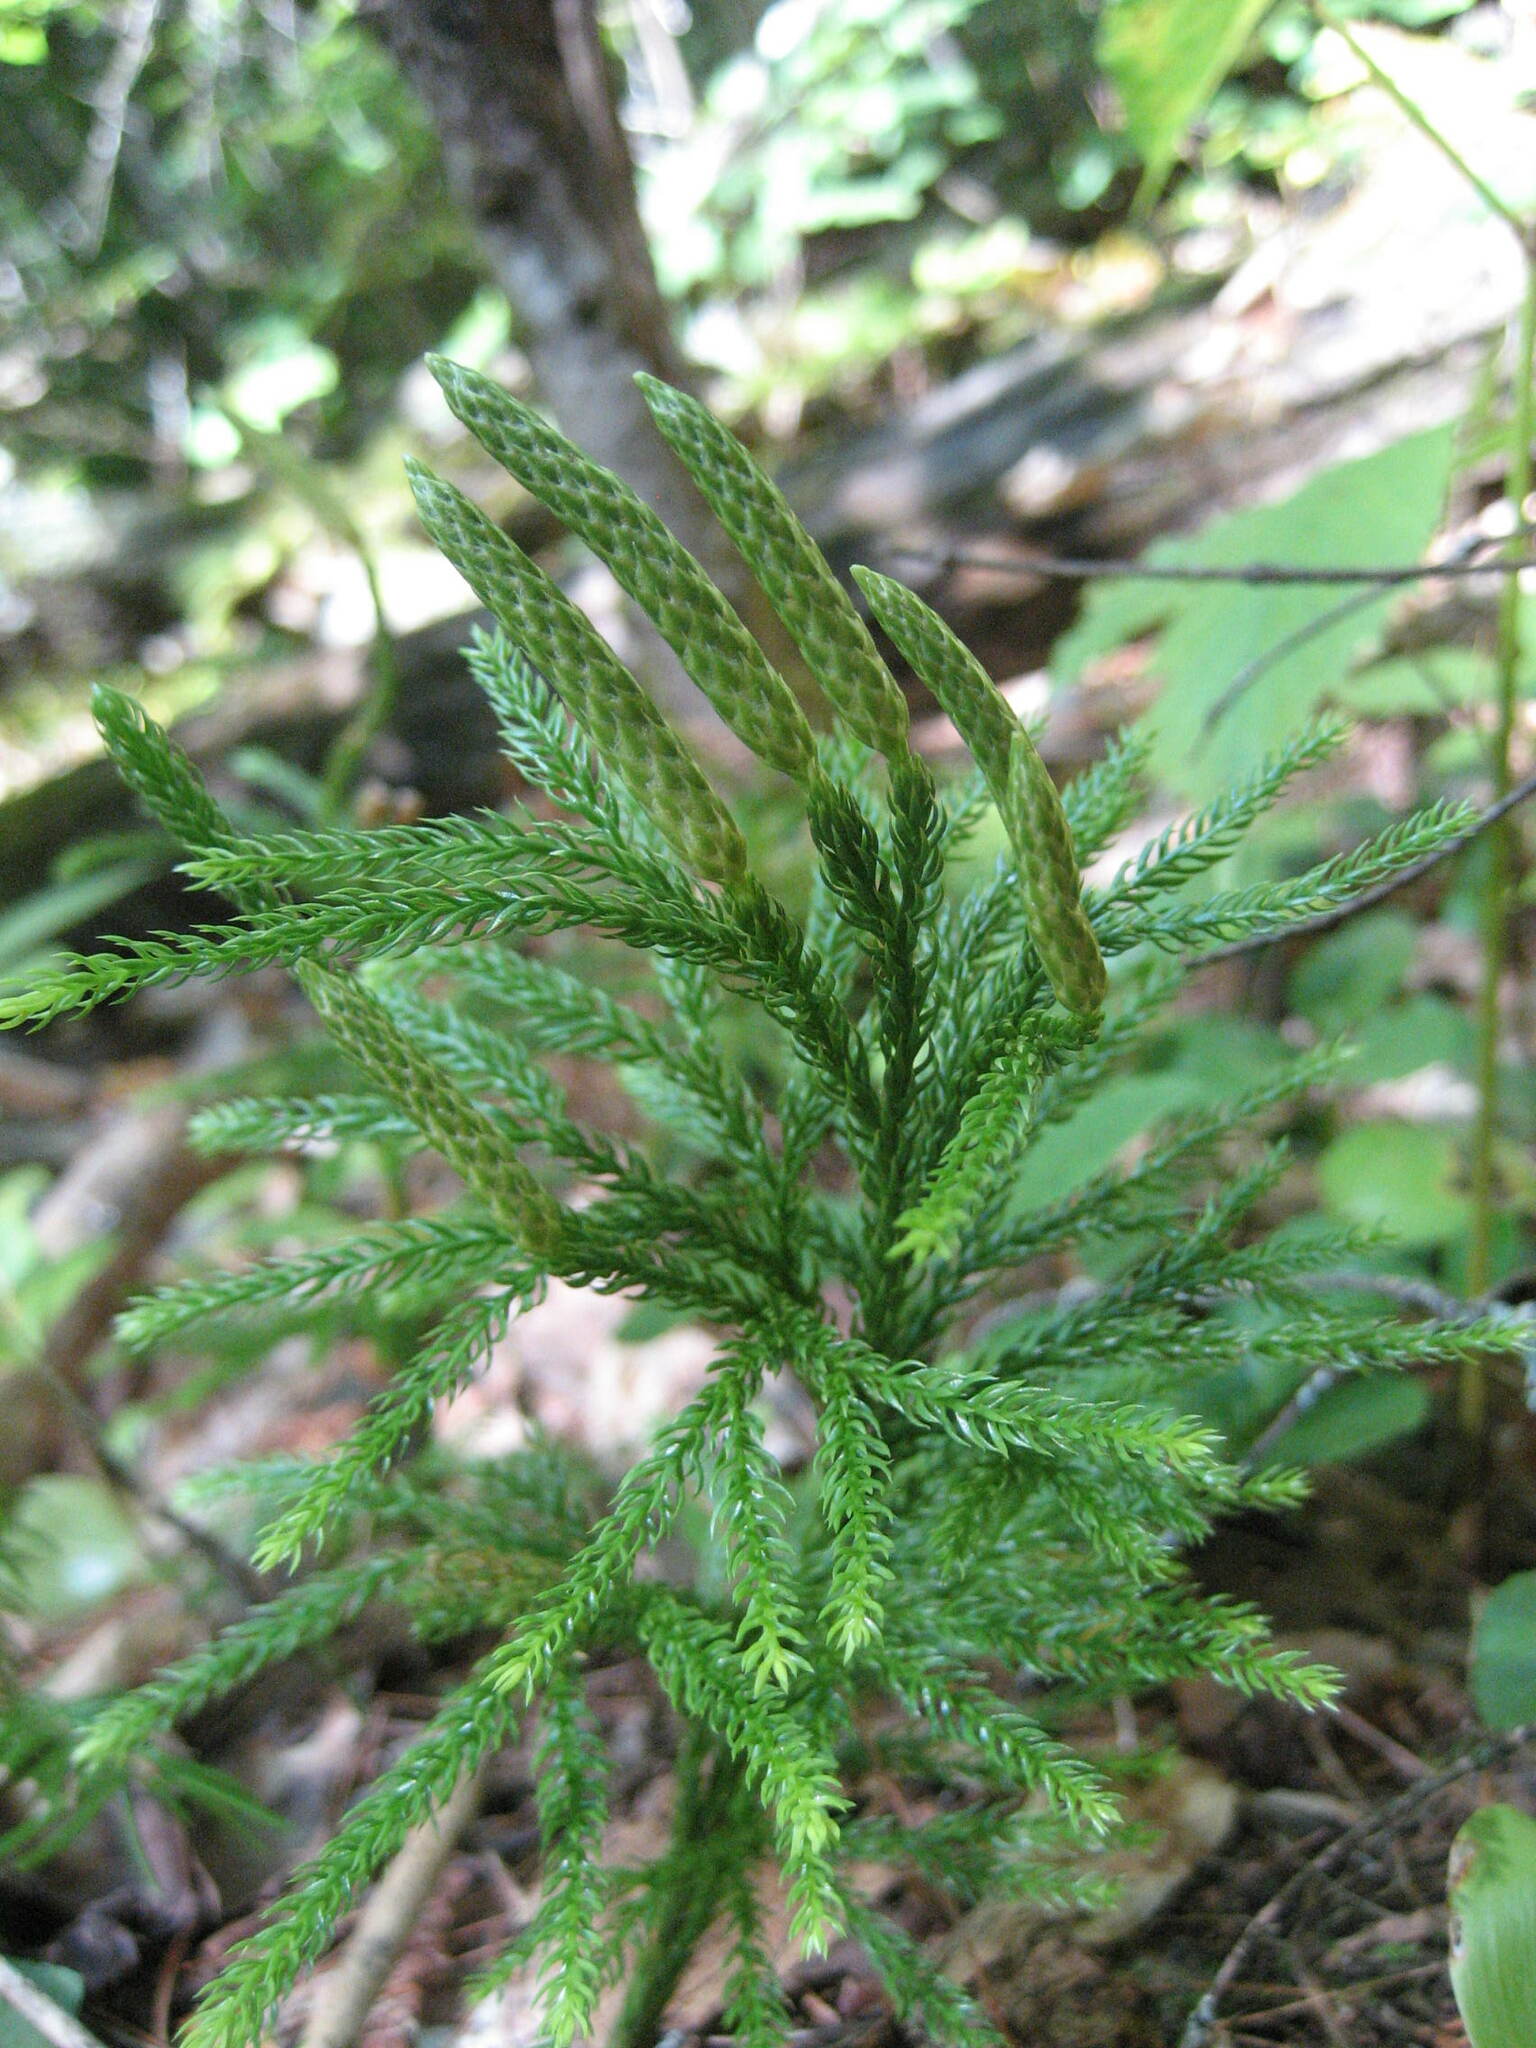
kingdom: Plantae
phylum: Tracheophyta
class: Lycopodiopsida
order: Lycopodiales
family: Lycopodiaceae
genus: Dendrolycopodium
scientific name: Dendrolycopodium hickeyi
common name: Hickey's clubmoss
